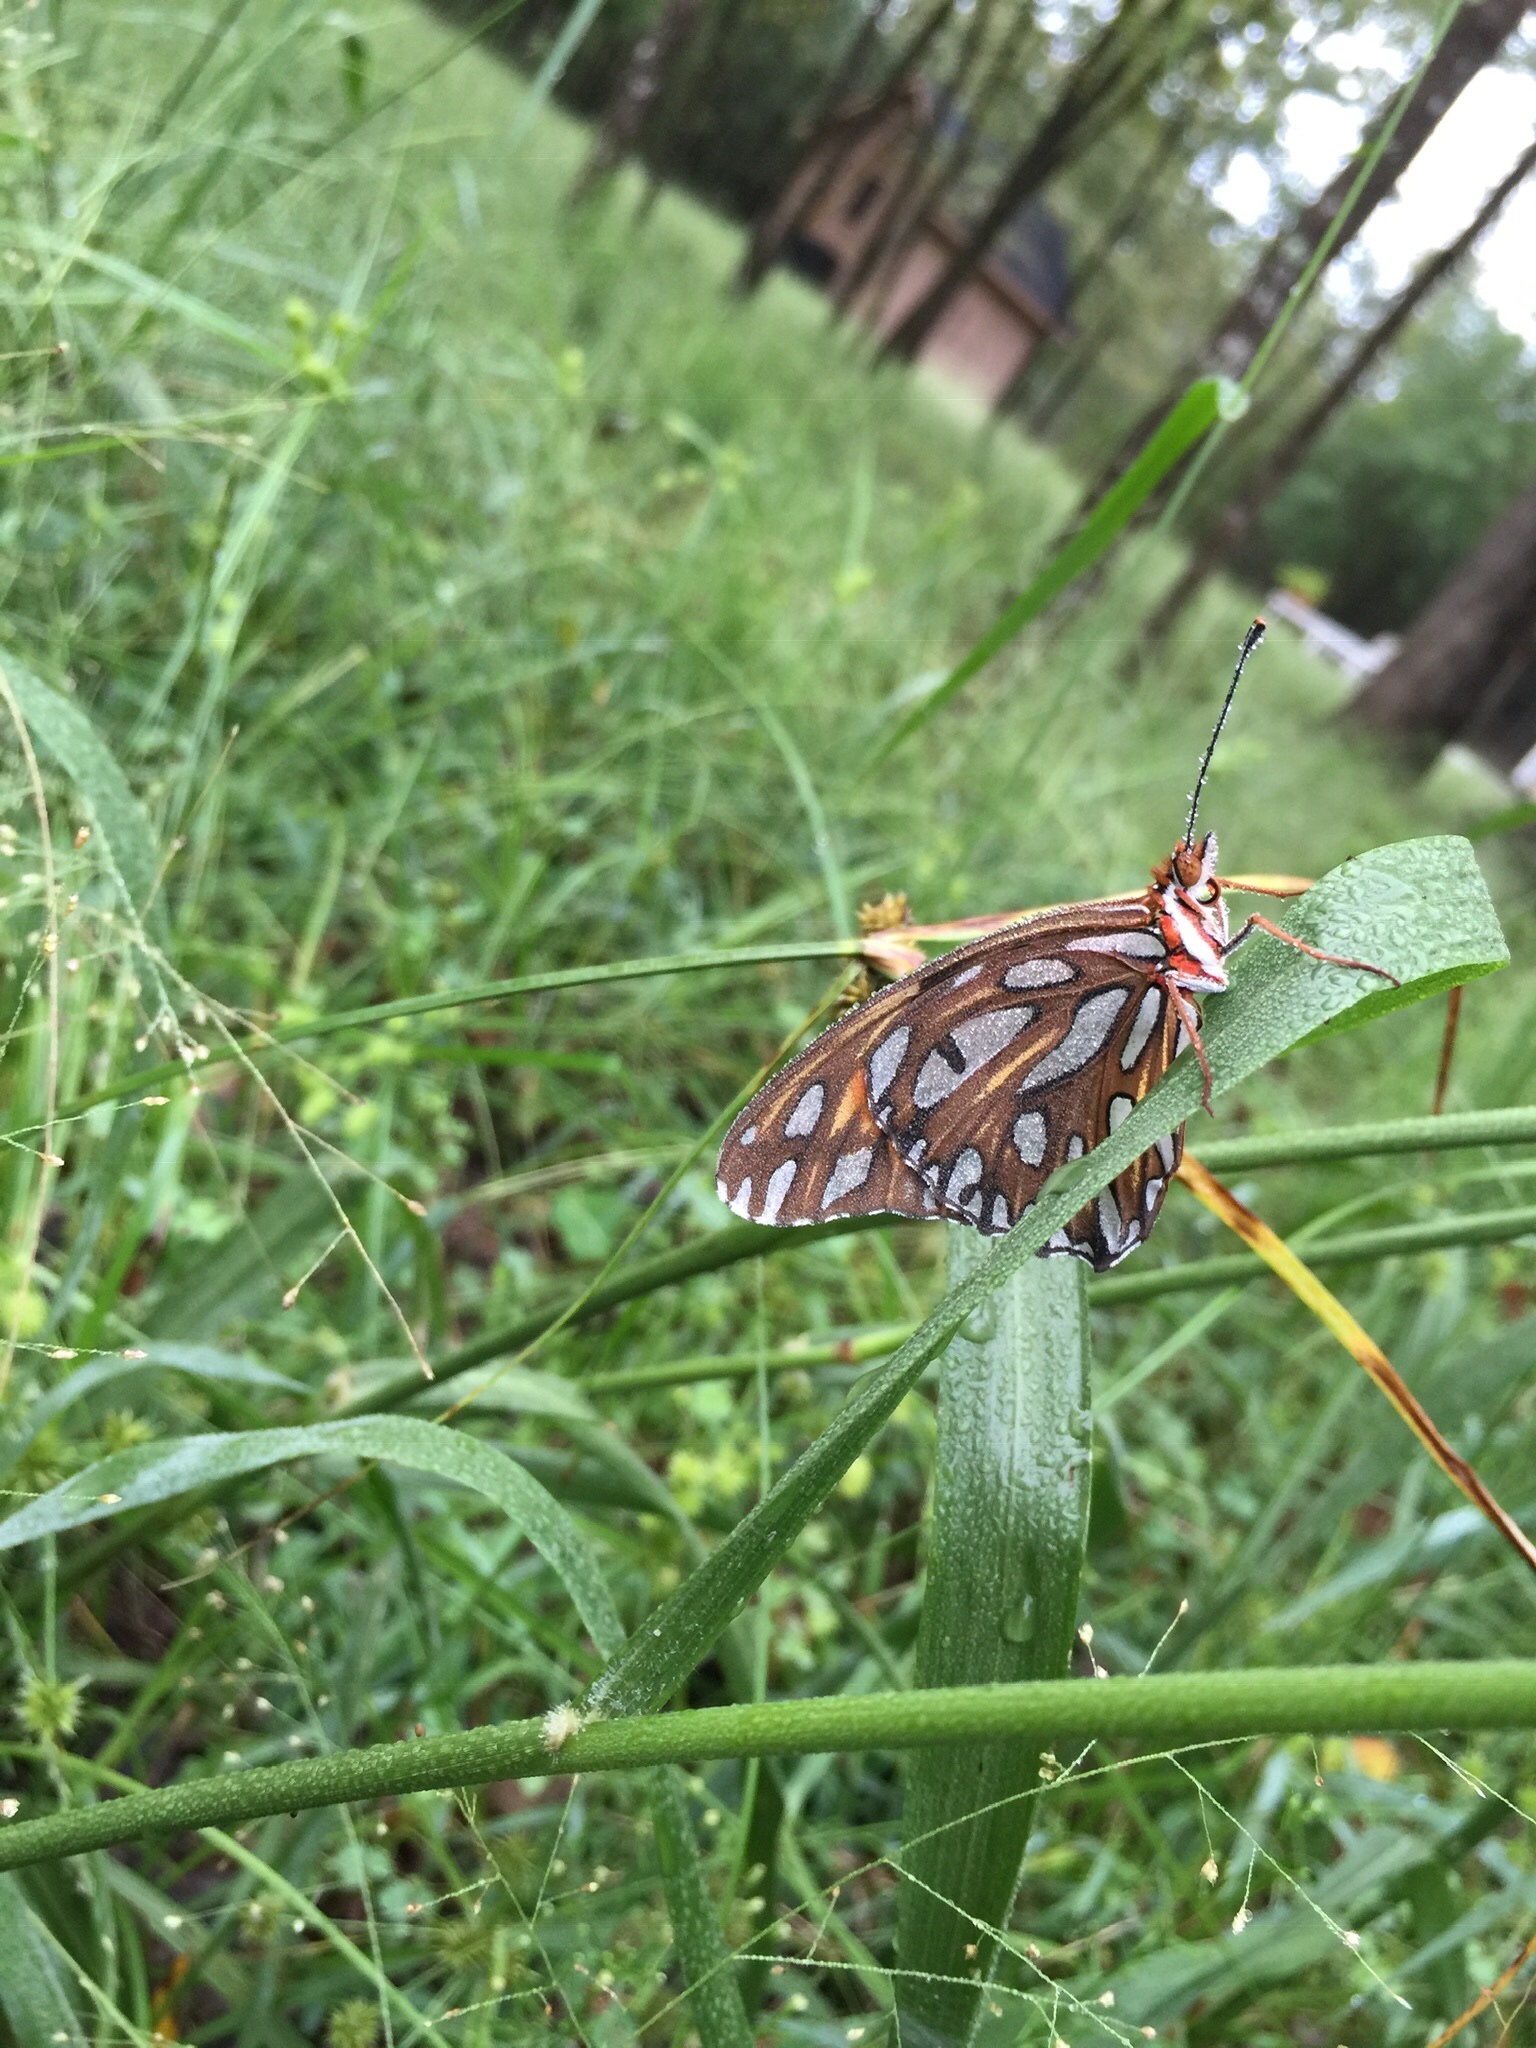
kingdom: Animalia
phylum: Arthropoda
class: Insecta
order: Lepidoptera
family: Nymphalidae
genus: Dione
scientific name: Dione vanillae
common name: Gulf fritillary
